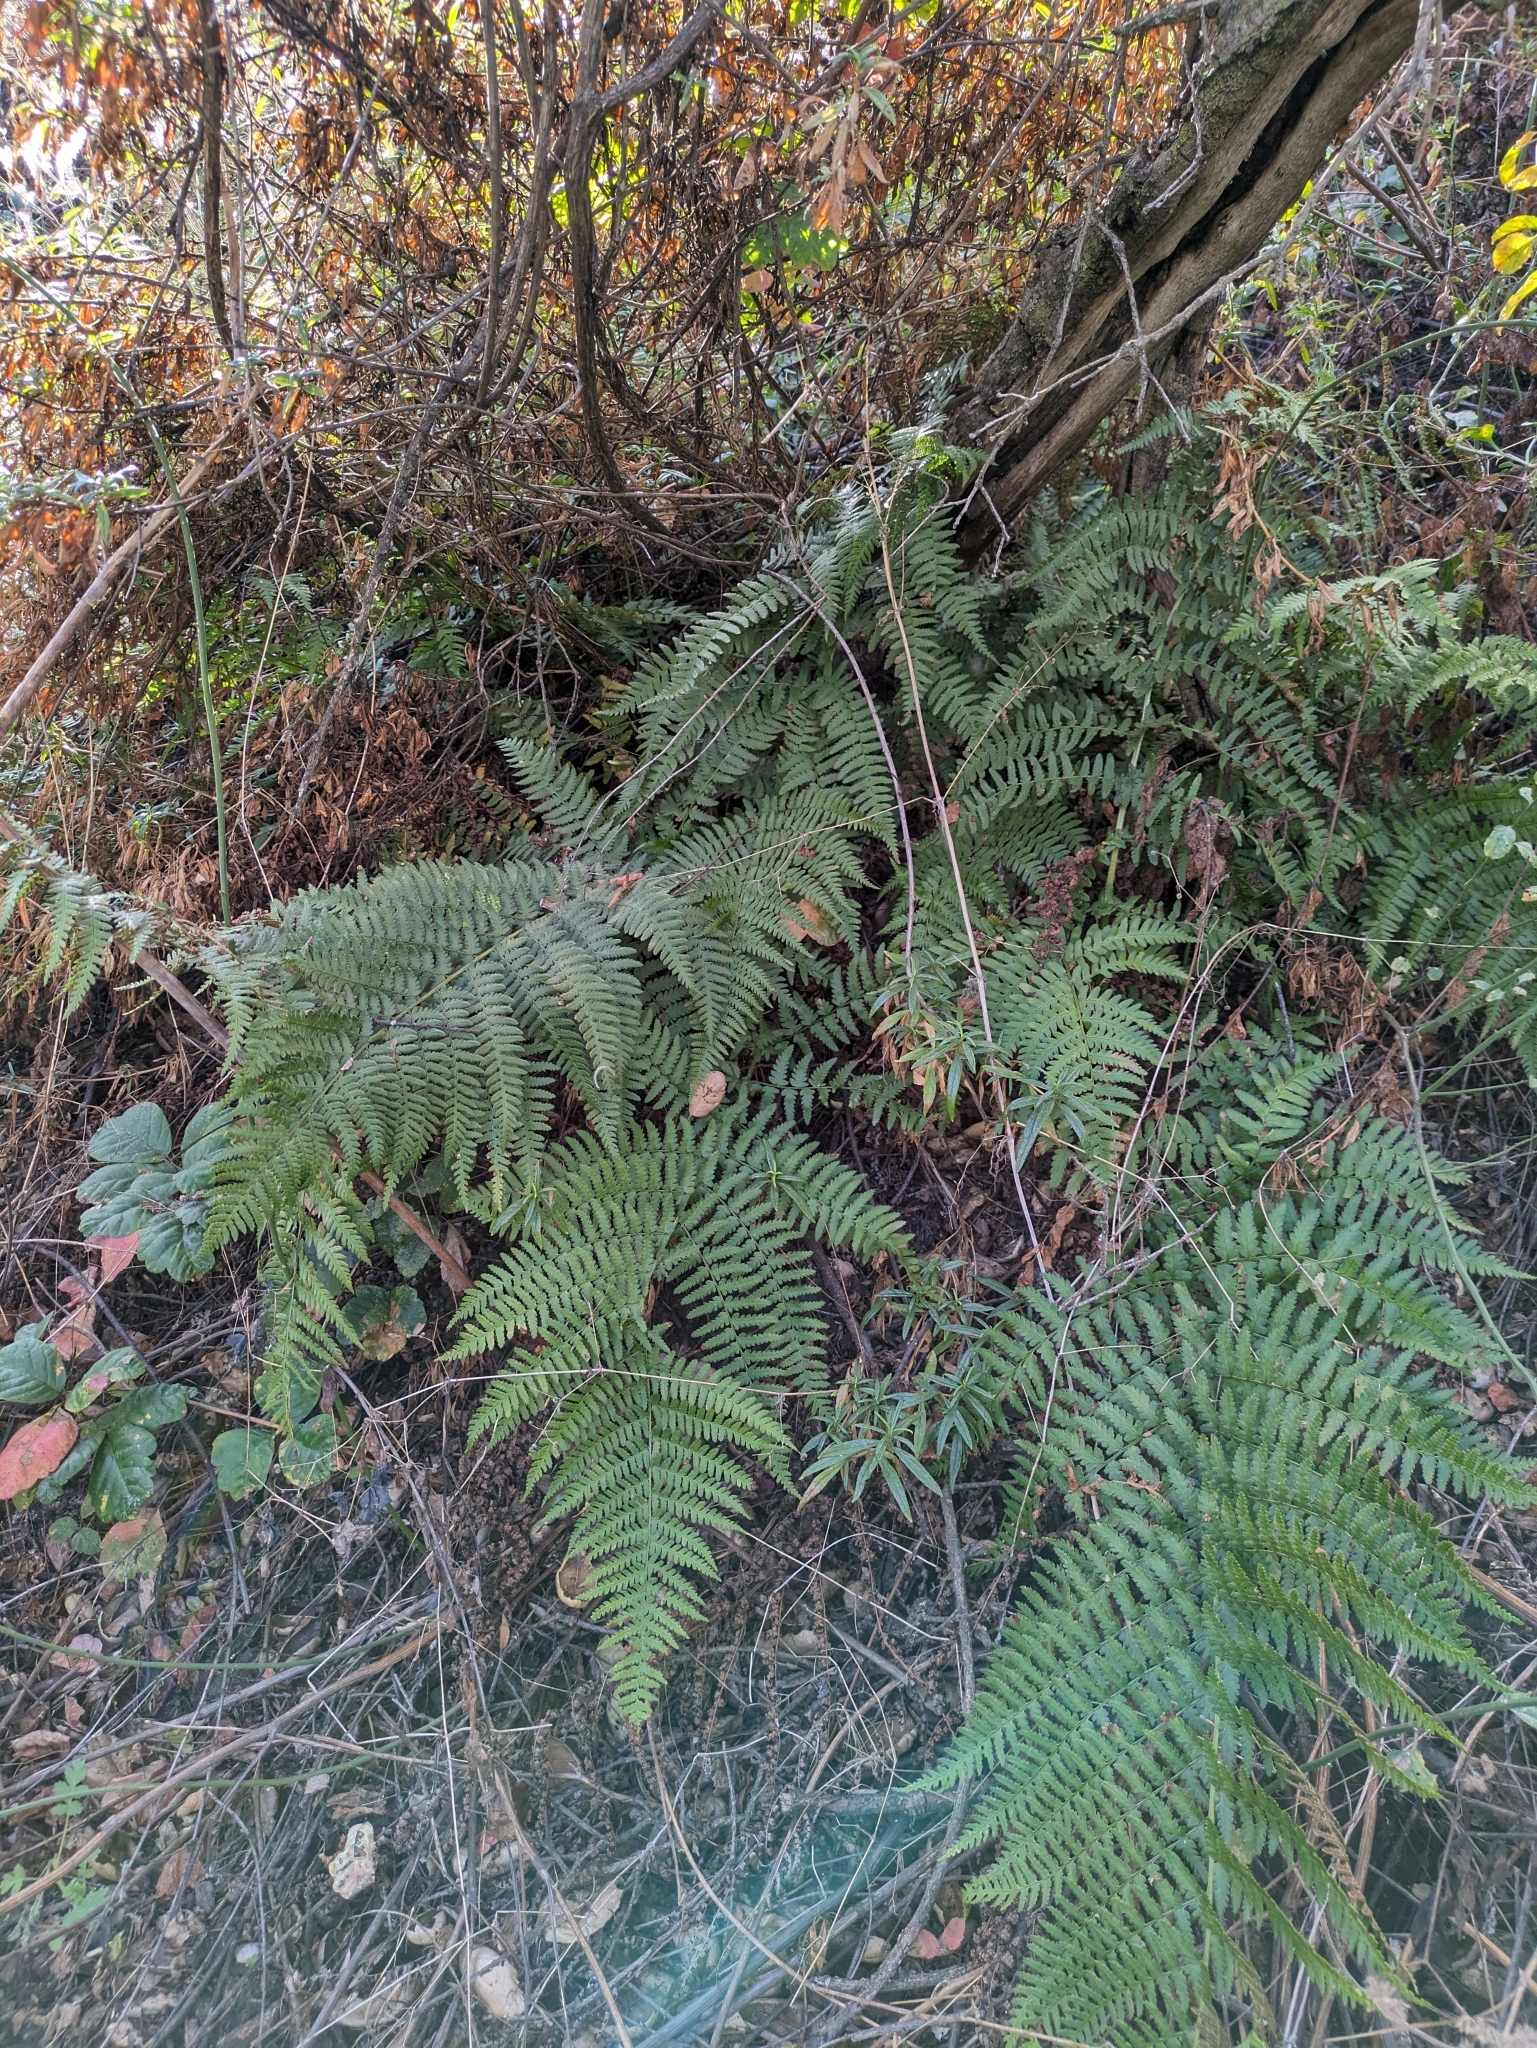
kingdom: Plantae
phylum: Tracheophyta
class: Polypodiopsida
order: Polypodiales
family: Dryopteridaceae
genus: Dryopteris
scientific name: Dryopteris arguta
